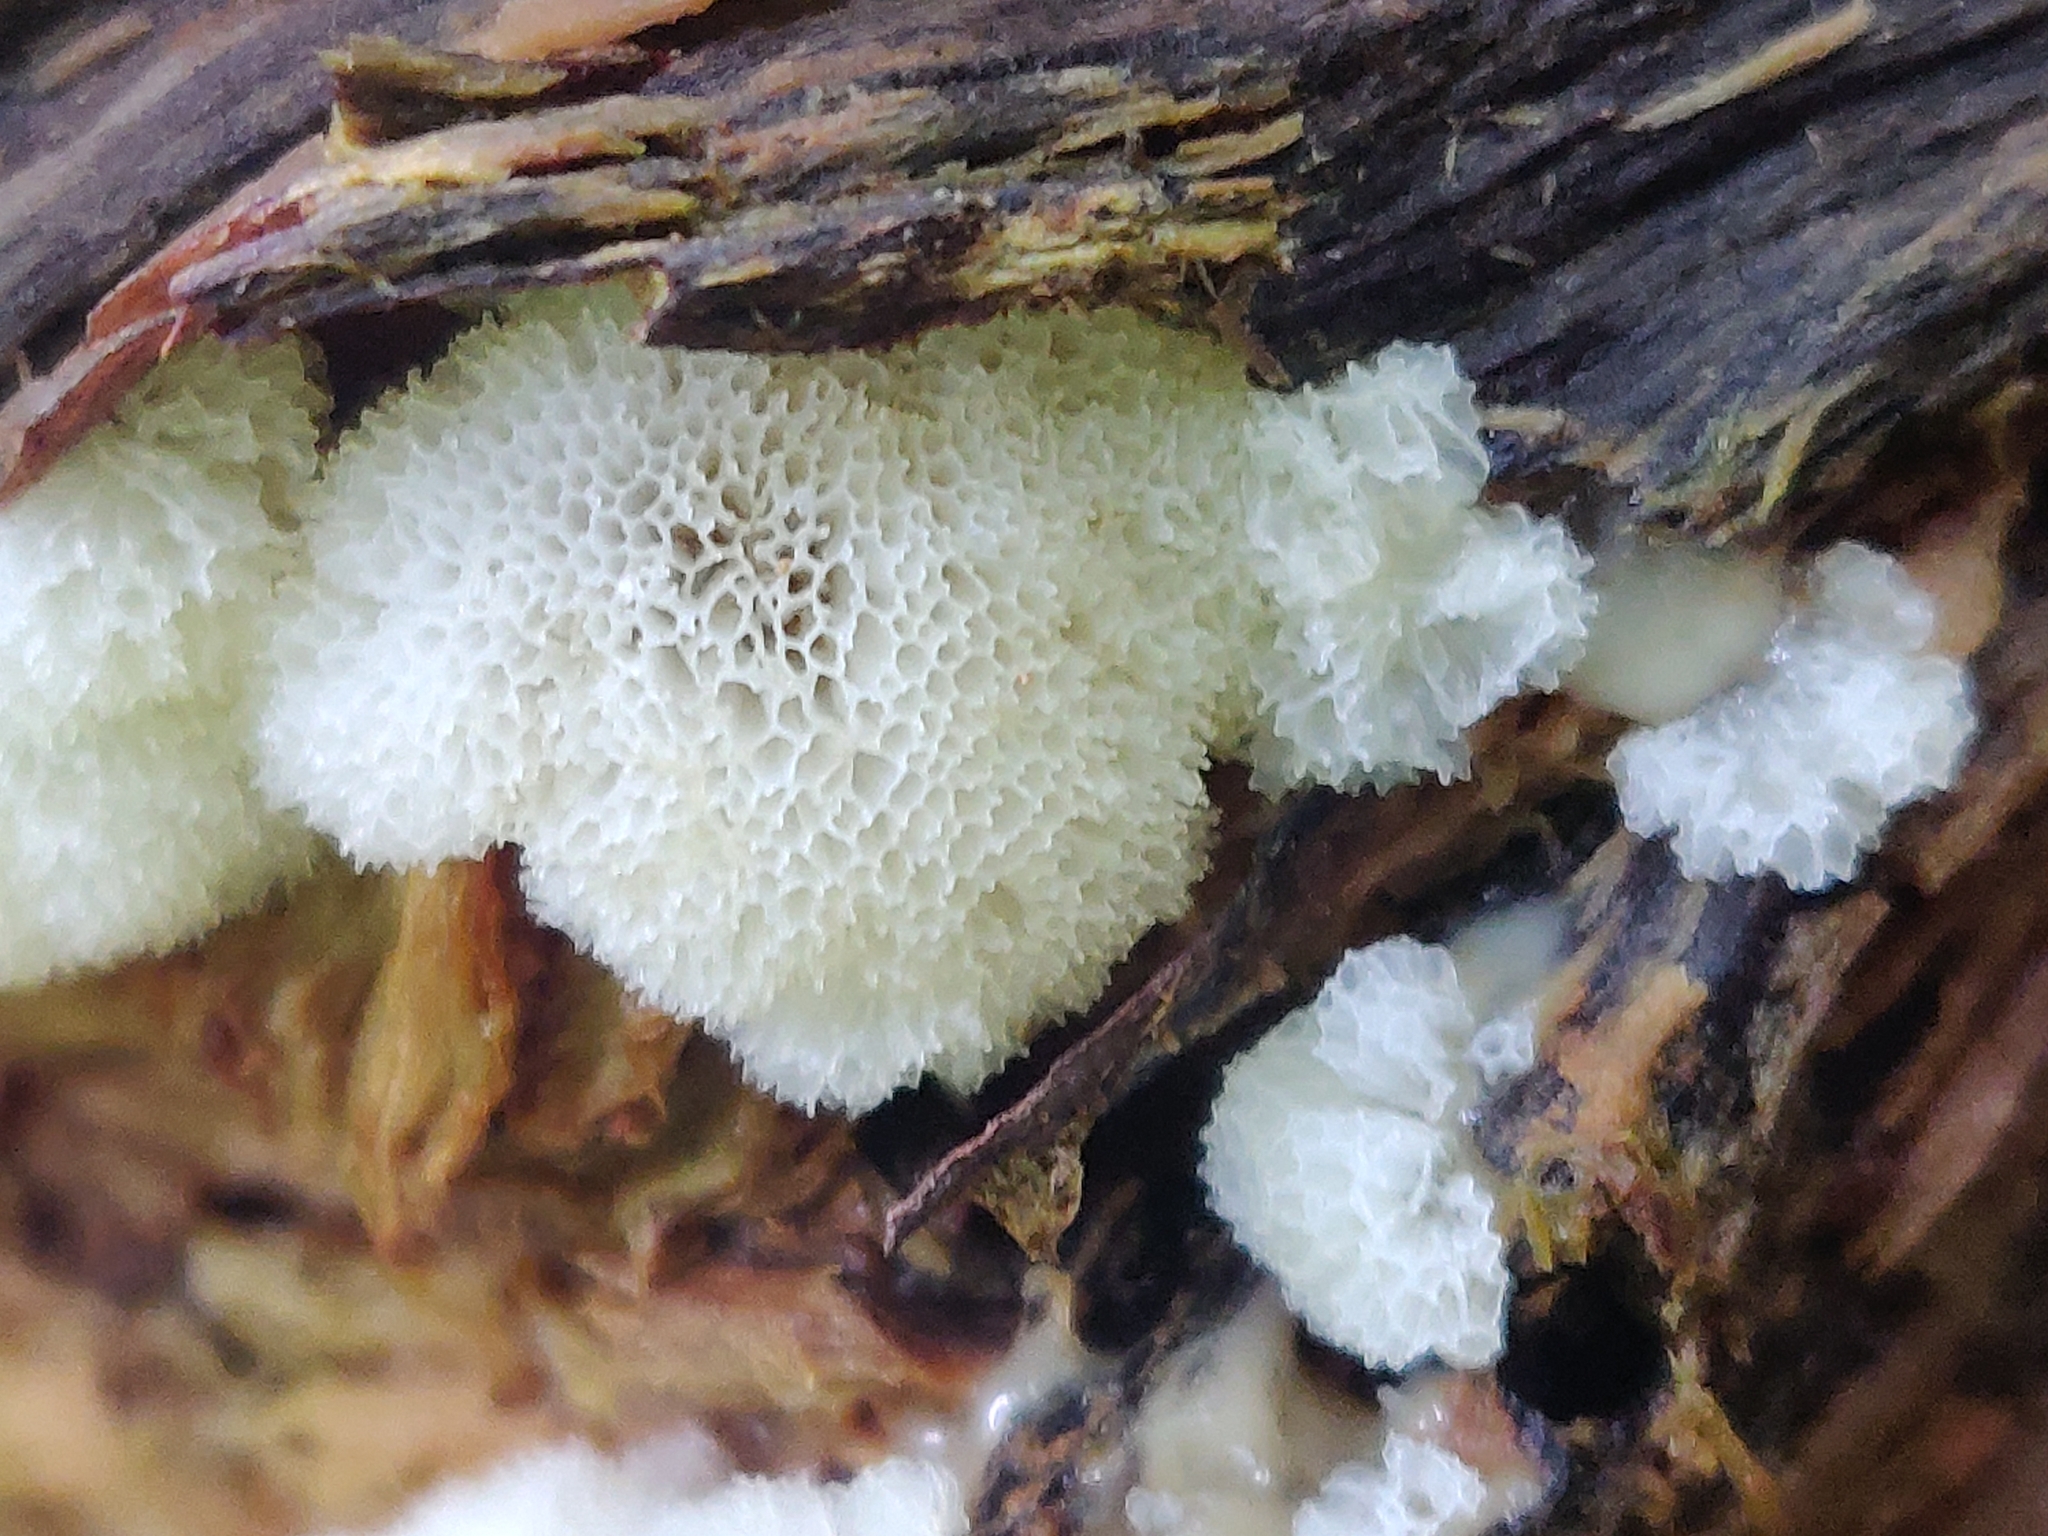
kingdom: Protozoa
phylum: Mycetozoa
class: Protosteliomycetes
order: Ceratiomyxales
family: Ceratiomyxaceae
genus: Ceratiomyxa
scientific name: Ceratiomyxa fruticulosa
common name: Honeycomb coral slime mold
